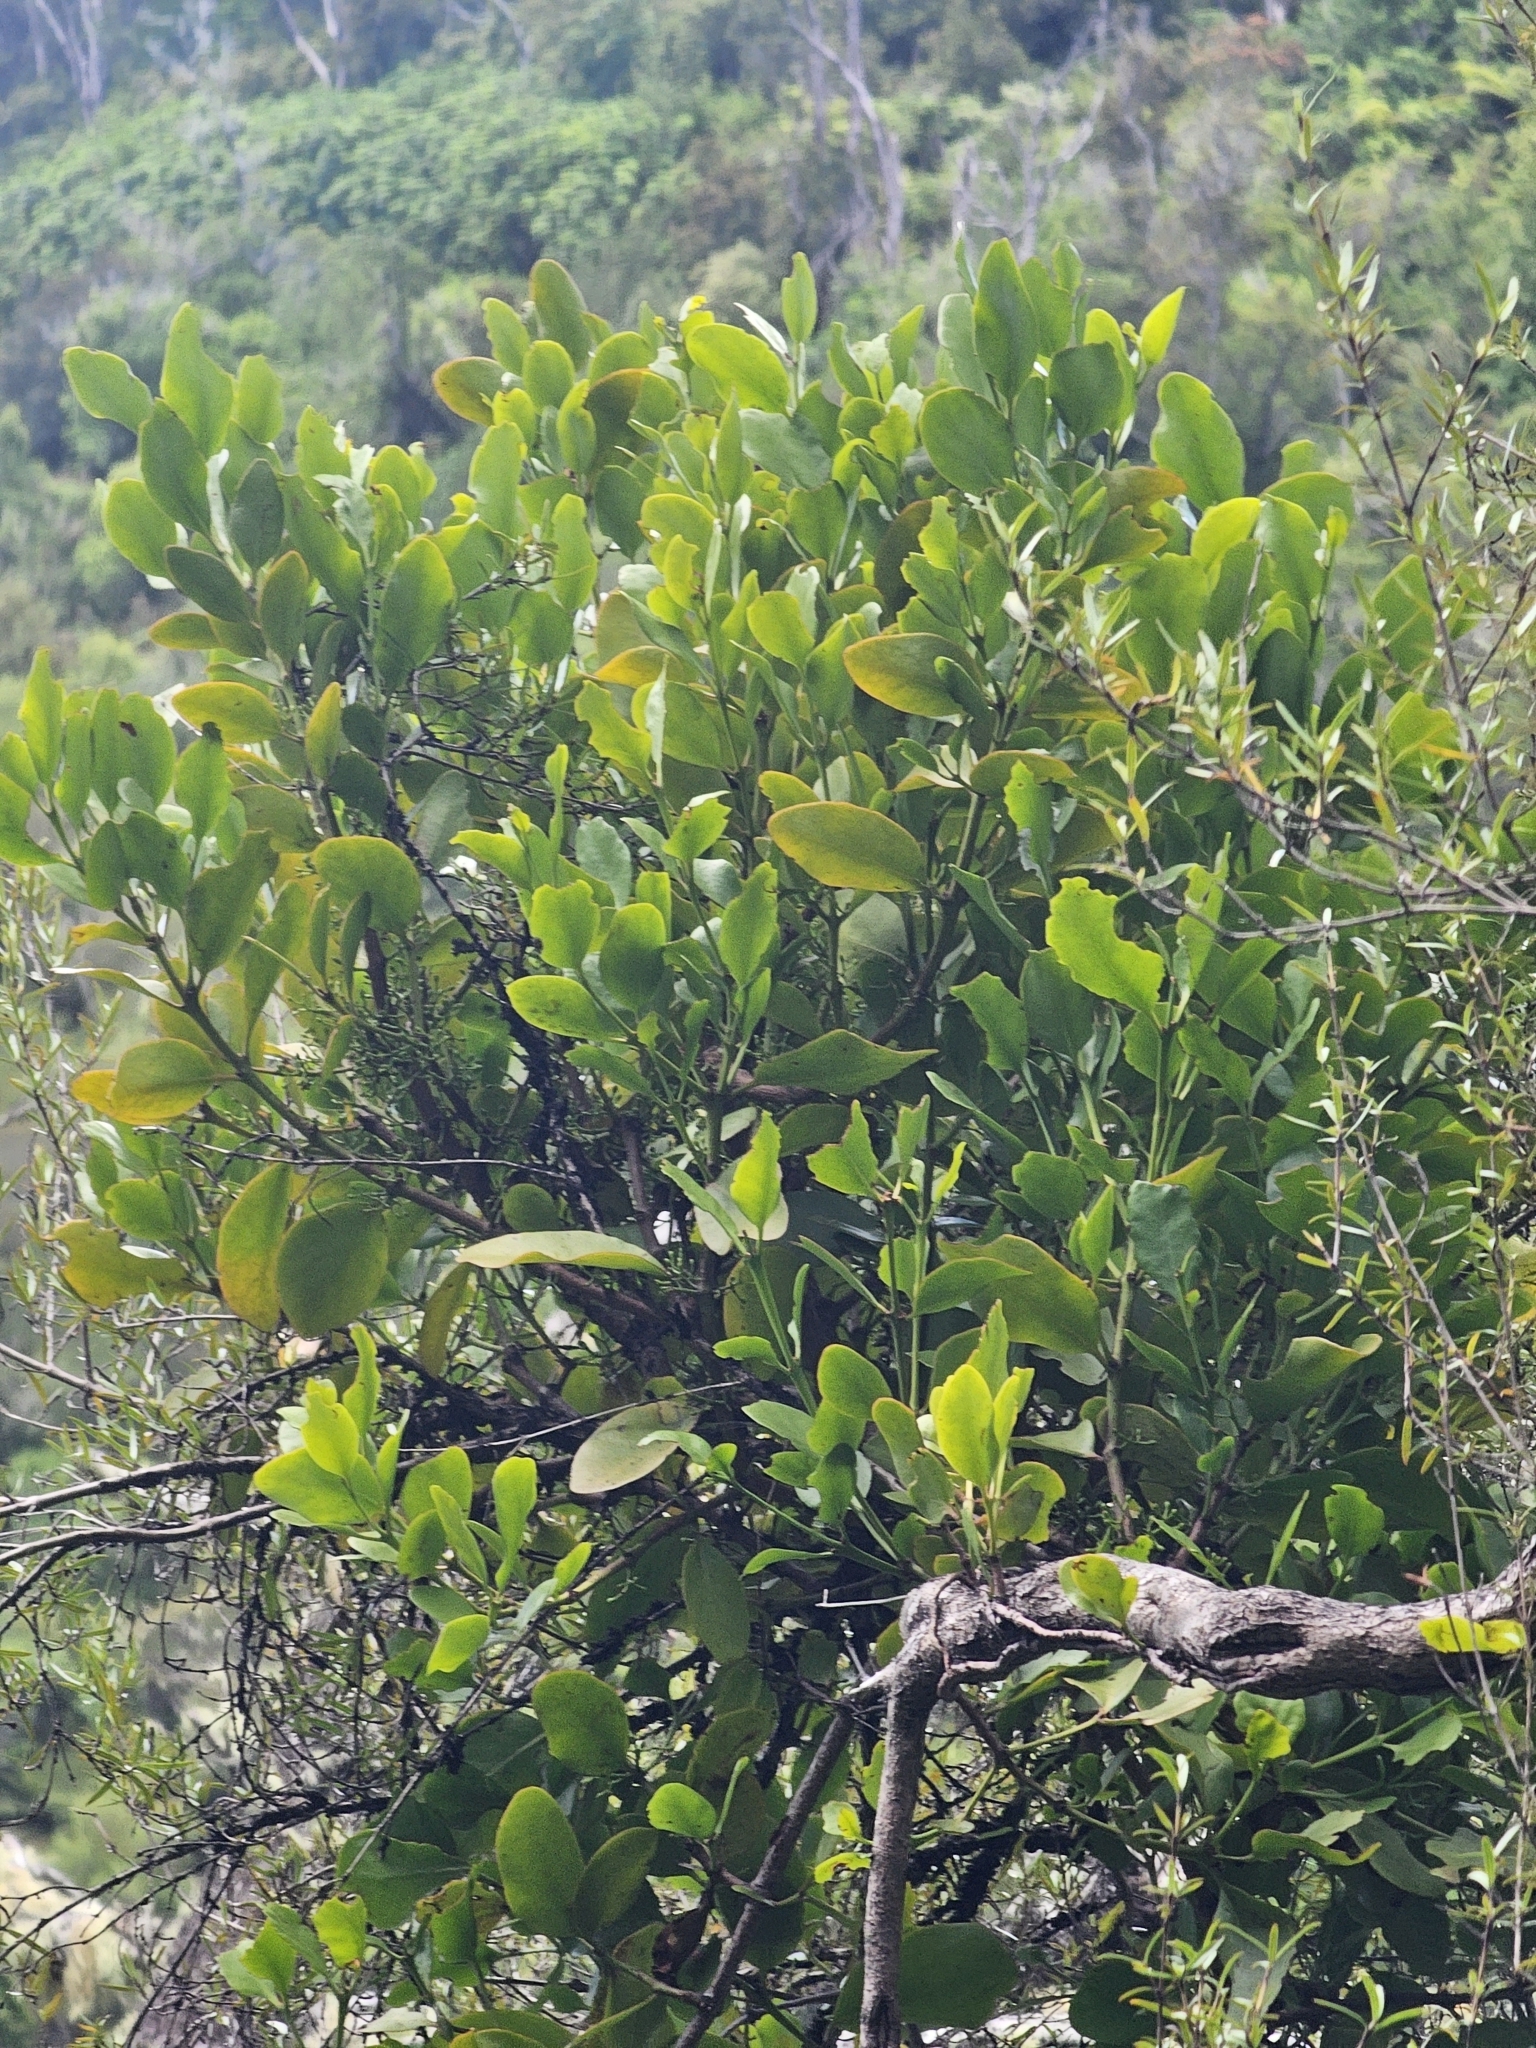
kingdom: Plantae
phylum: Tracheophyta
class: Magnoliopsida
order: Santalales
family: Loranthaceae
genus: Ileostylus
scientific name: Ileostylus micranthus
